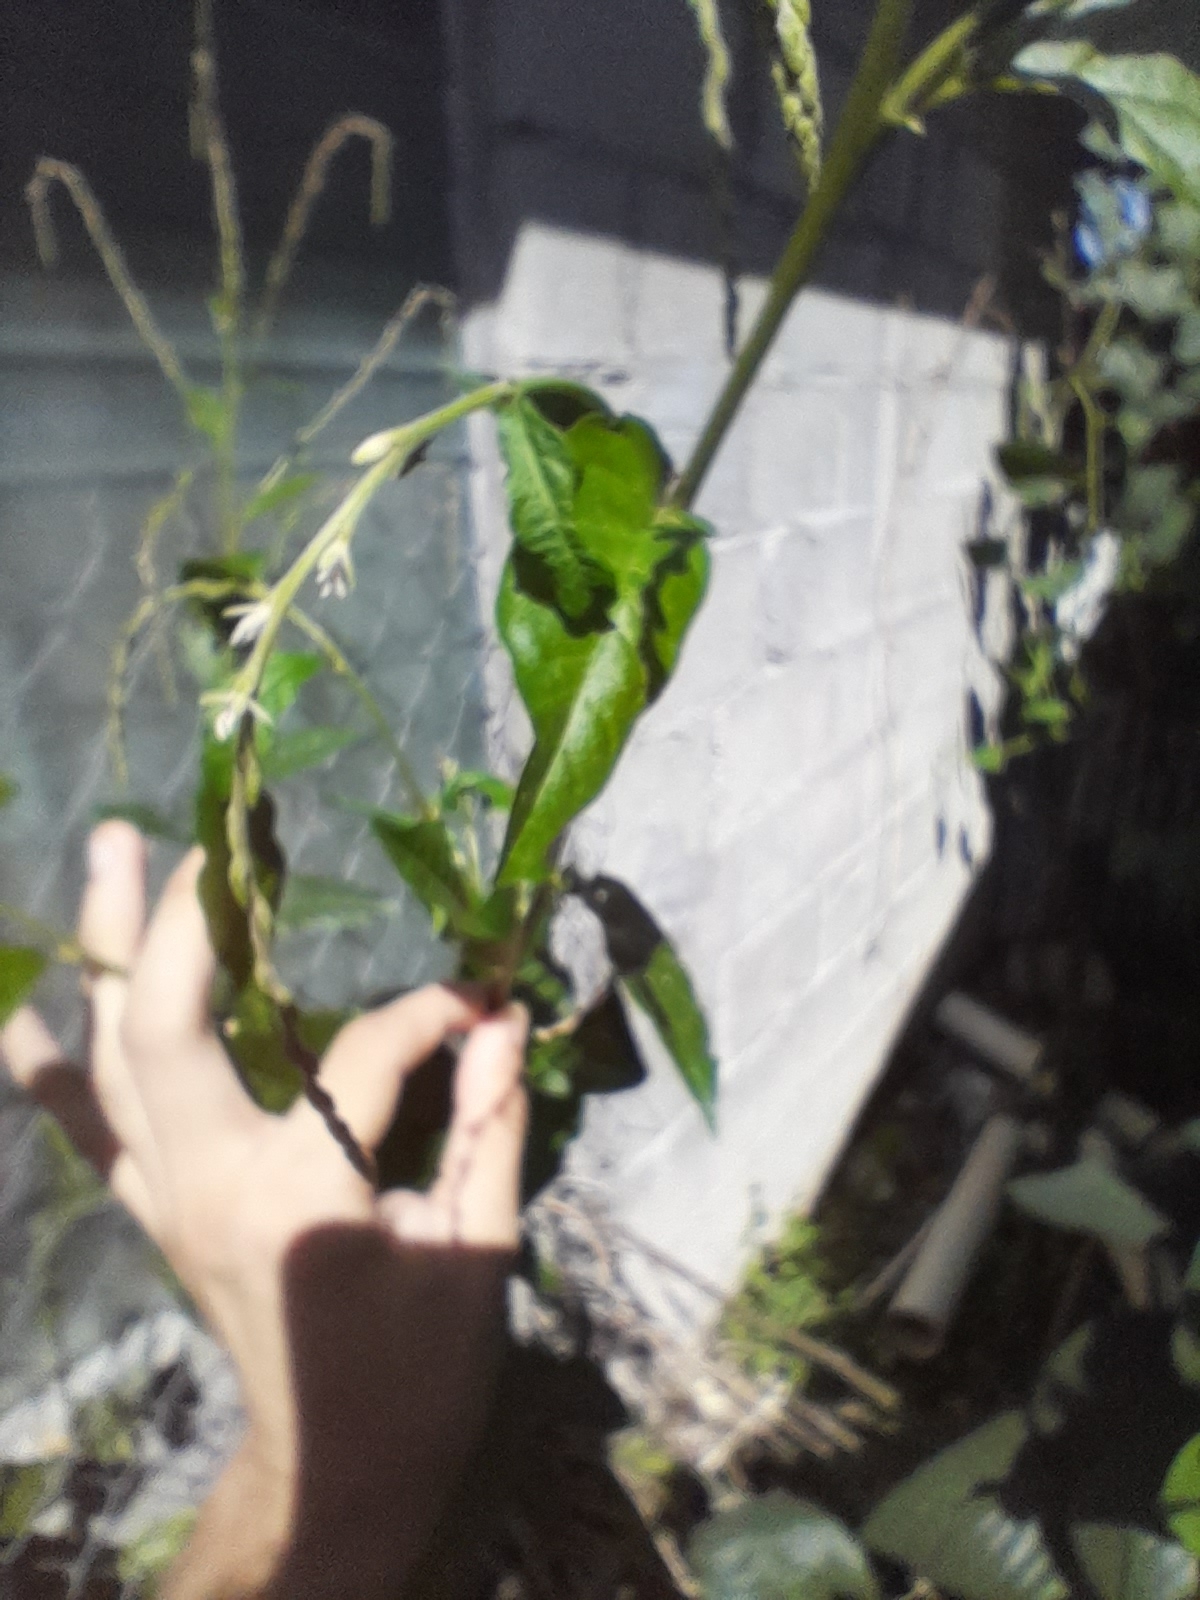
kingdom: Plantae
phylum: Tracheophyta
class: Magnoliopsida
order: Caryophyllales
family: Phytolaccaceae
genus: Petiveria
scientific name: Petiveria alliacea
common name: Garlicweed
